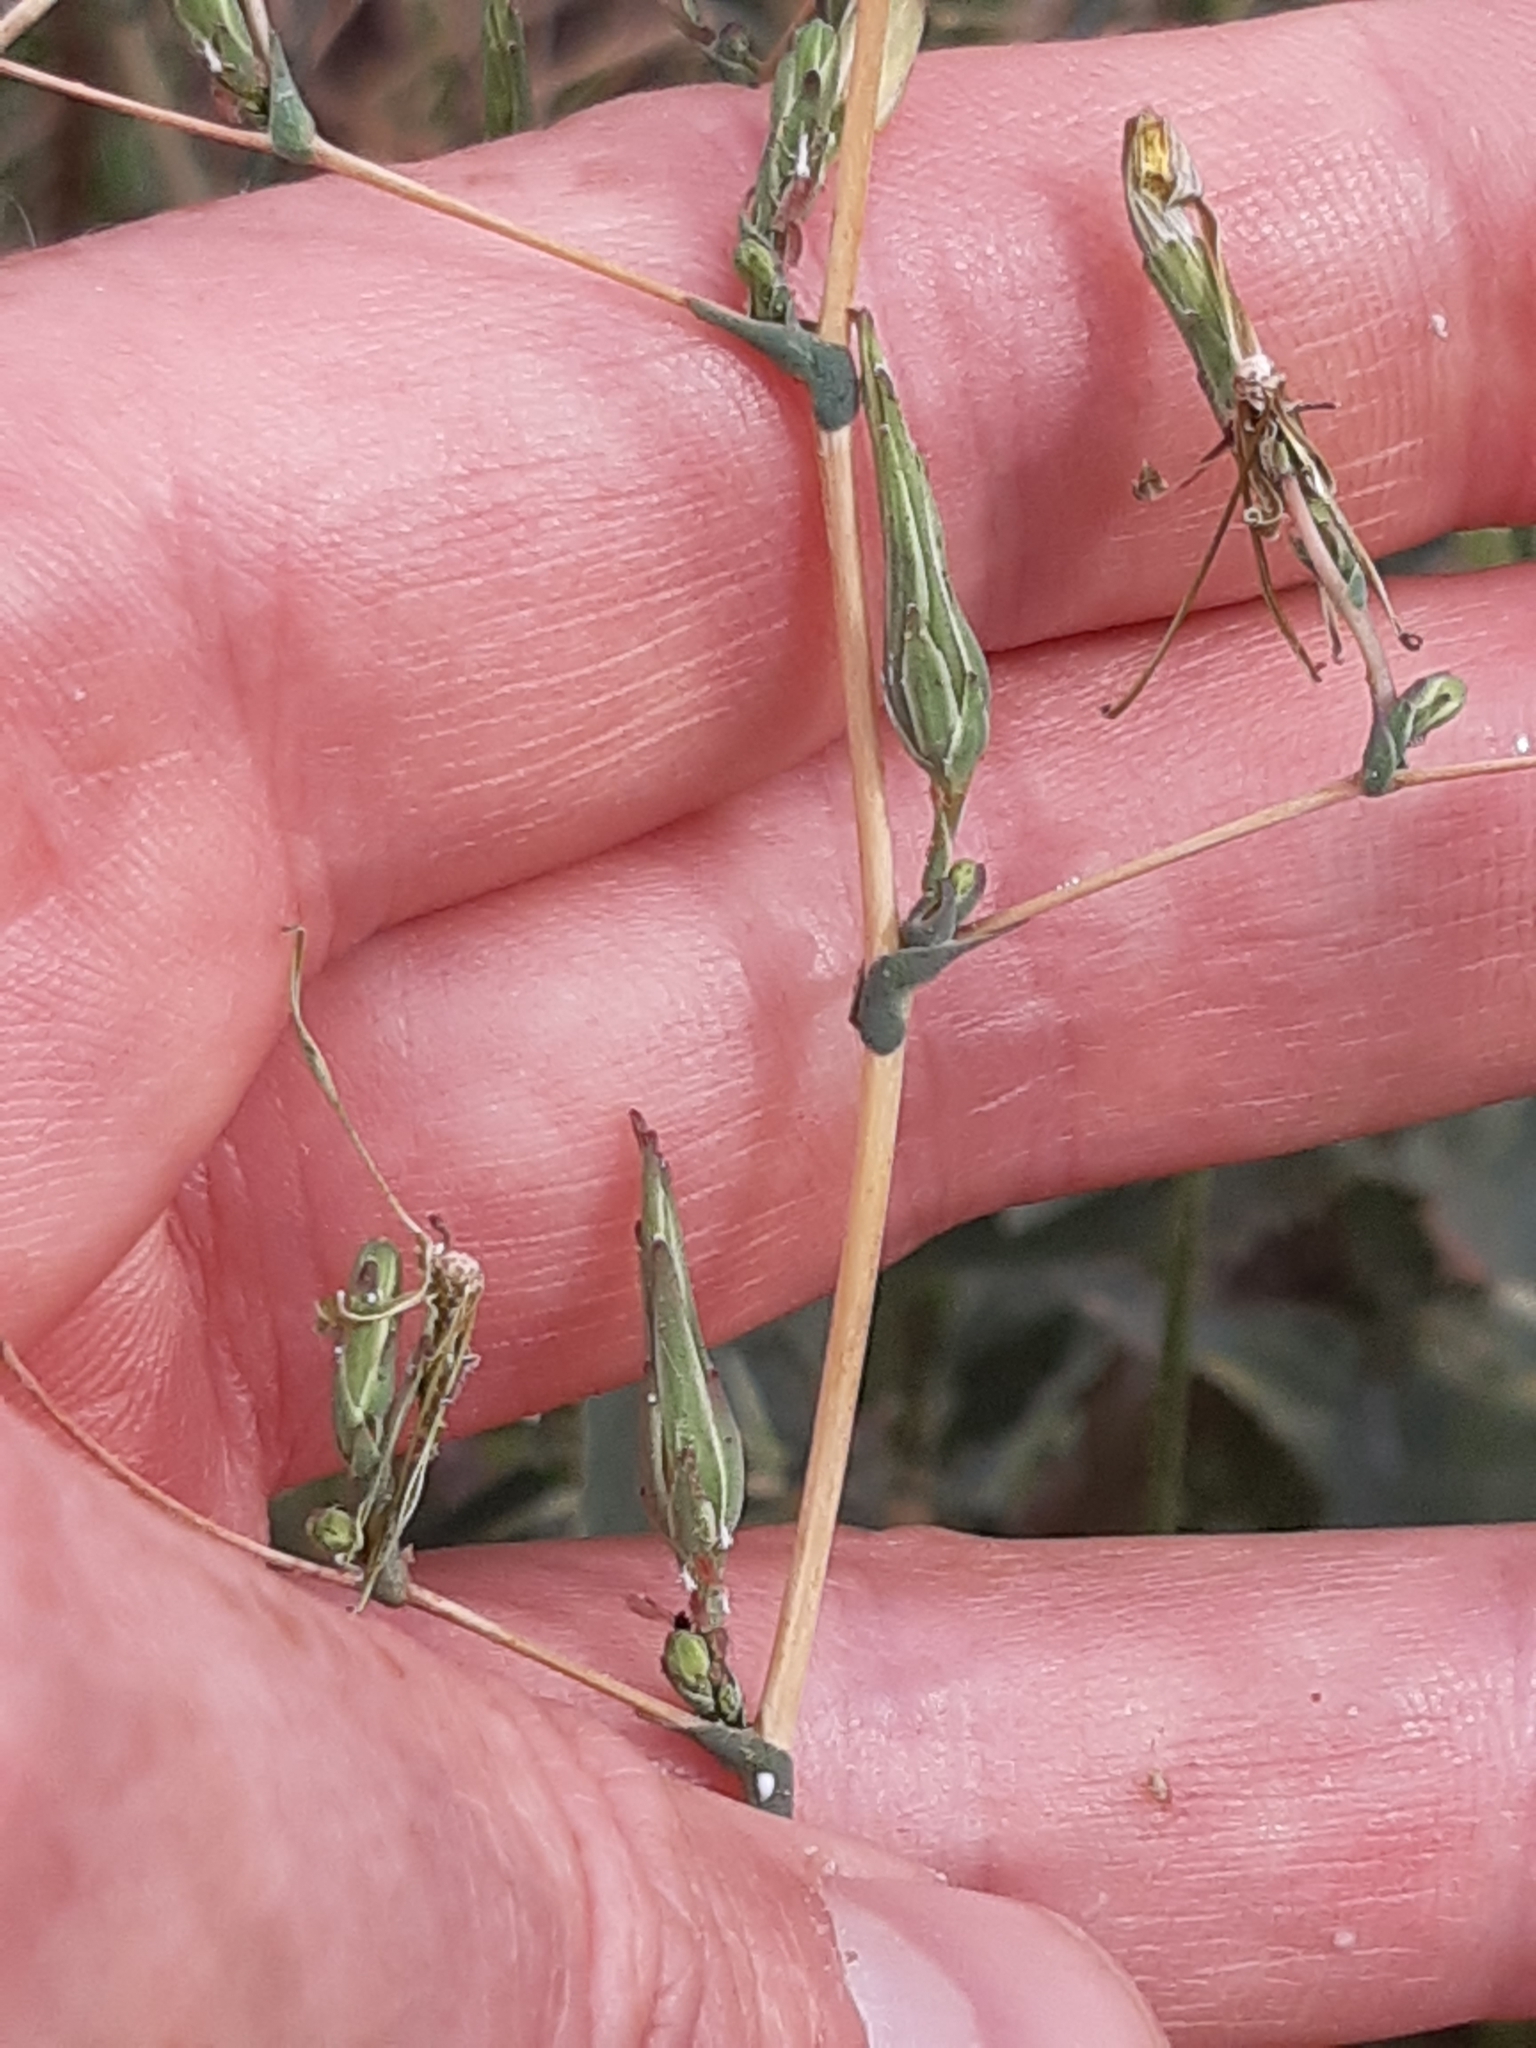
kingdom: Plantae
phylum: Tracheophyta
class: Magnoliopsida
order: Asterales
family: Asteraceae
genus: Lactuca
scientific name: Lactuca serriola
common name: Prickly lettuce
